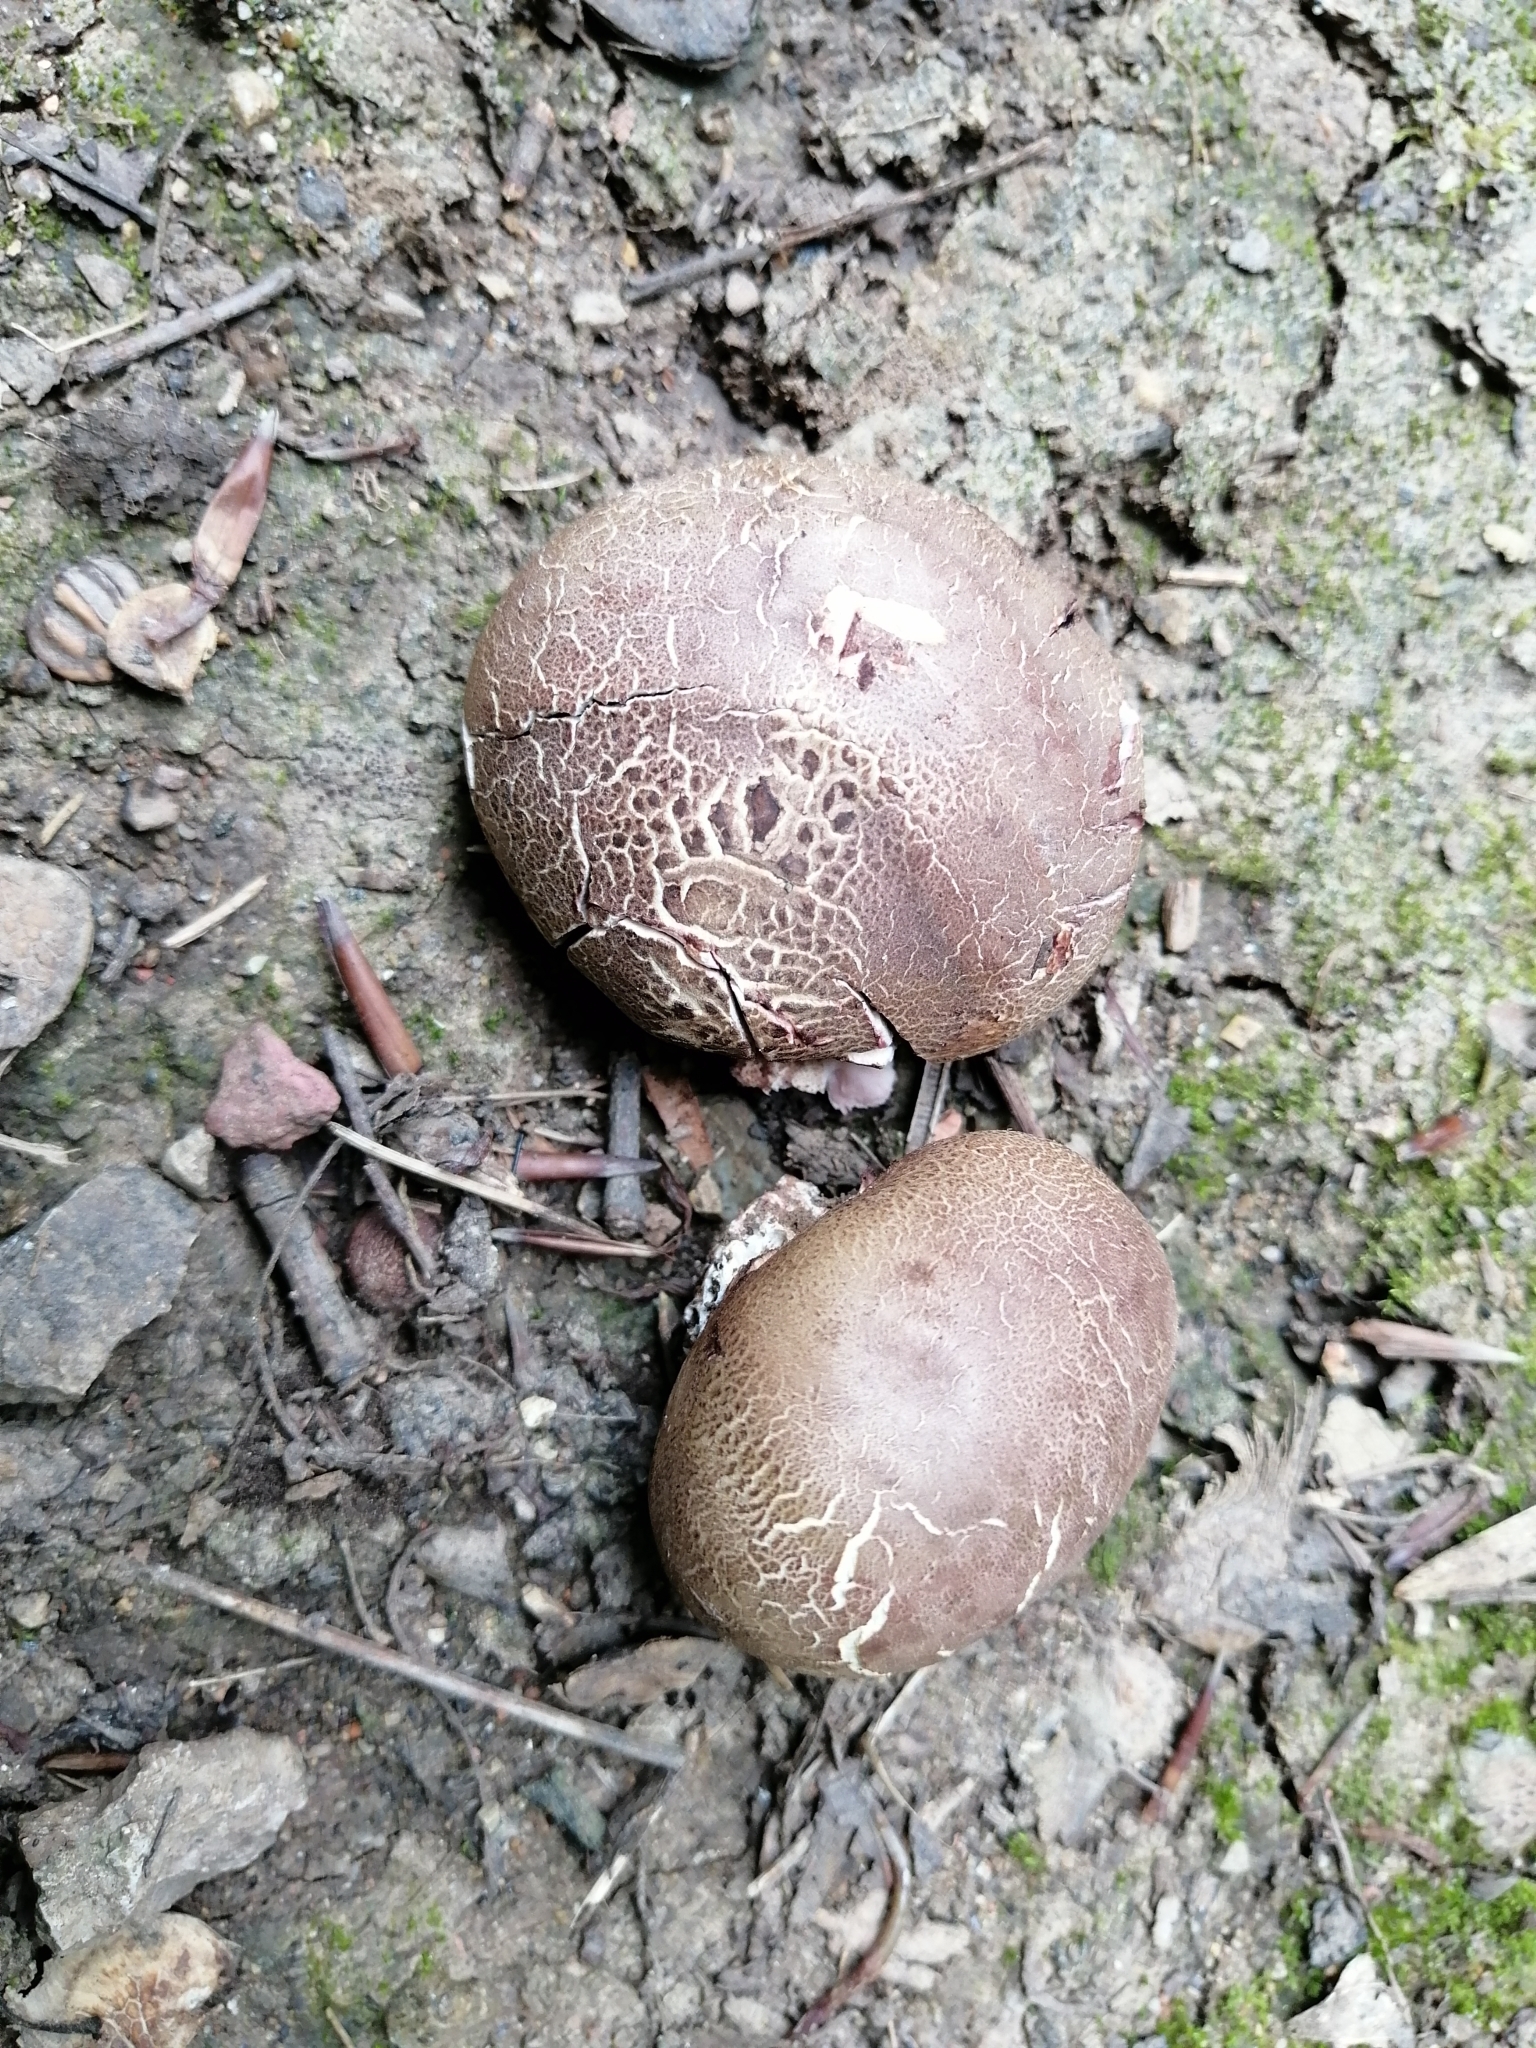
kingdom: Fungi
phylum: Basidiomycota
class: Agaricomycetes
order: Boletales
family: Sclerodermataceae
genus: Scleroderma
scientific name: Scleroderma bovista
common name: Potato earthball
